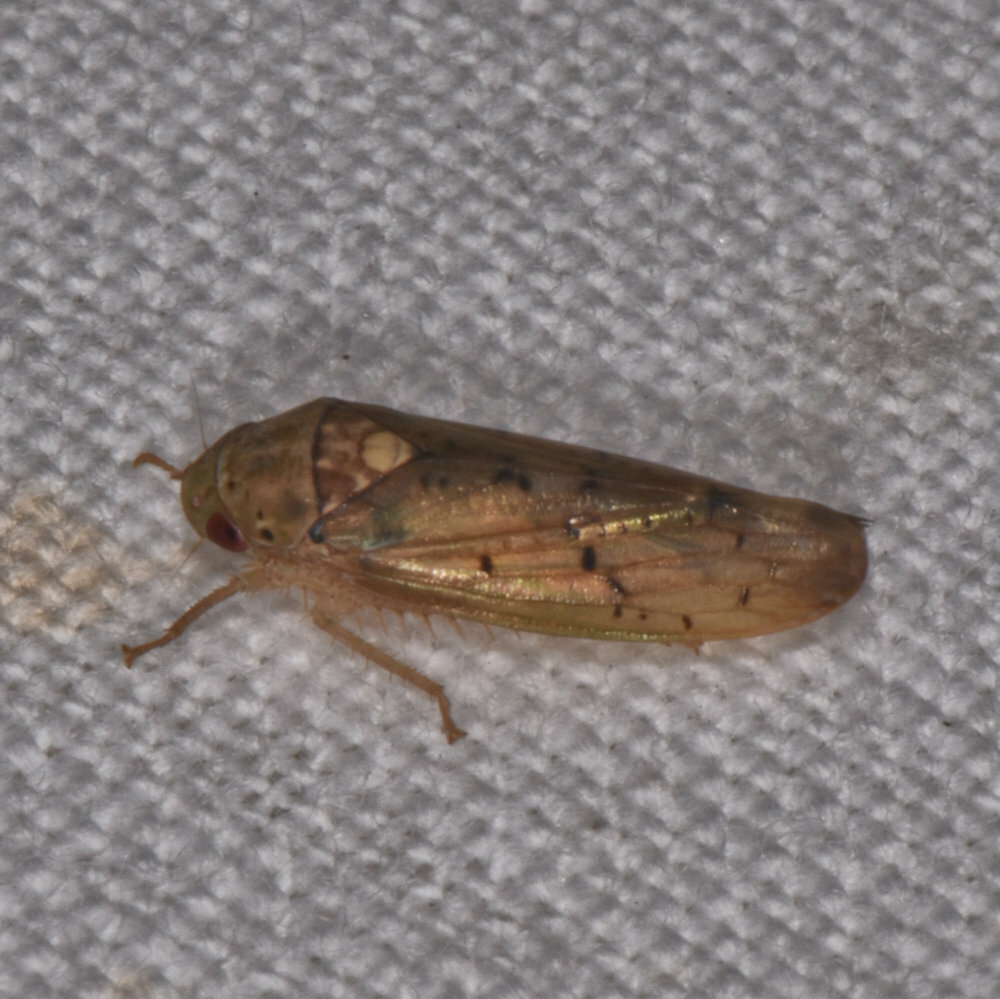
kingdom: Animalia
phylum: Arthropoda
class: Insecta
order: Hemiptera
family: Cicadellidae
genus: Ponana
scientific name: Ponana quadralaba
